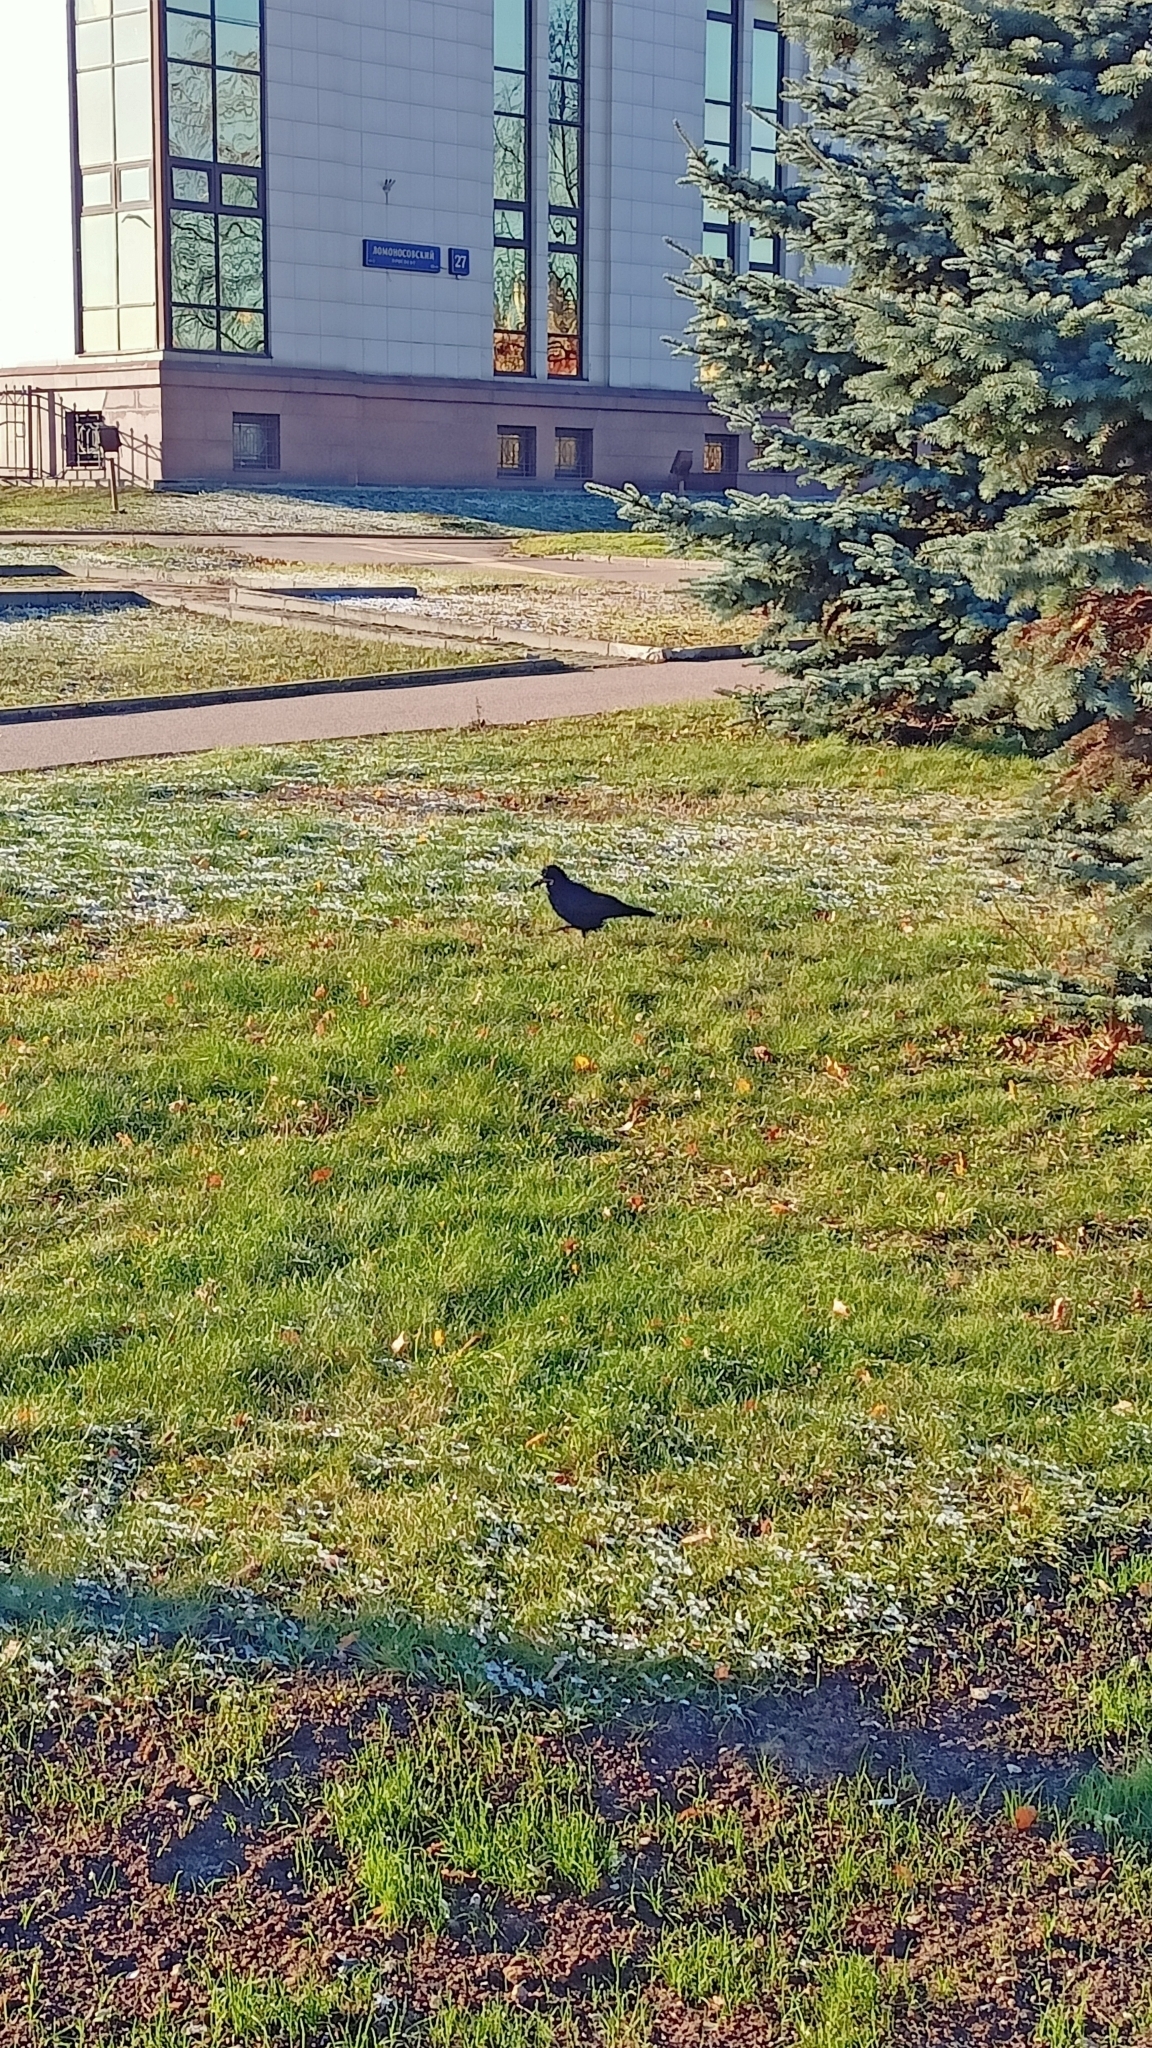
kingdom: Animalia
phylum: Chordata
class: Aves
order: Passeriformes
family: Corvidae
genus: Corvus
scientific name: Corvus frugilegus
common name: Rook
